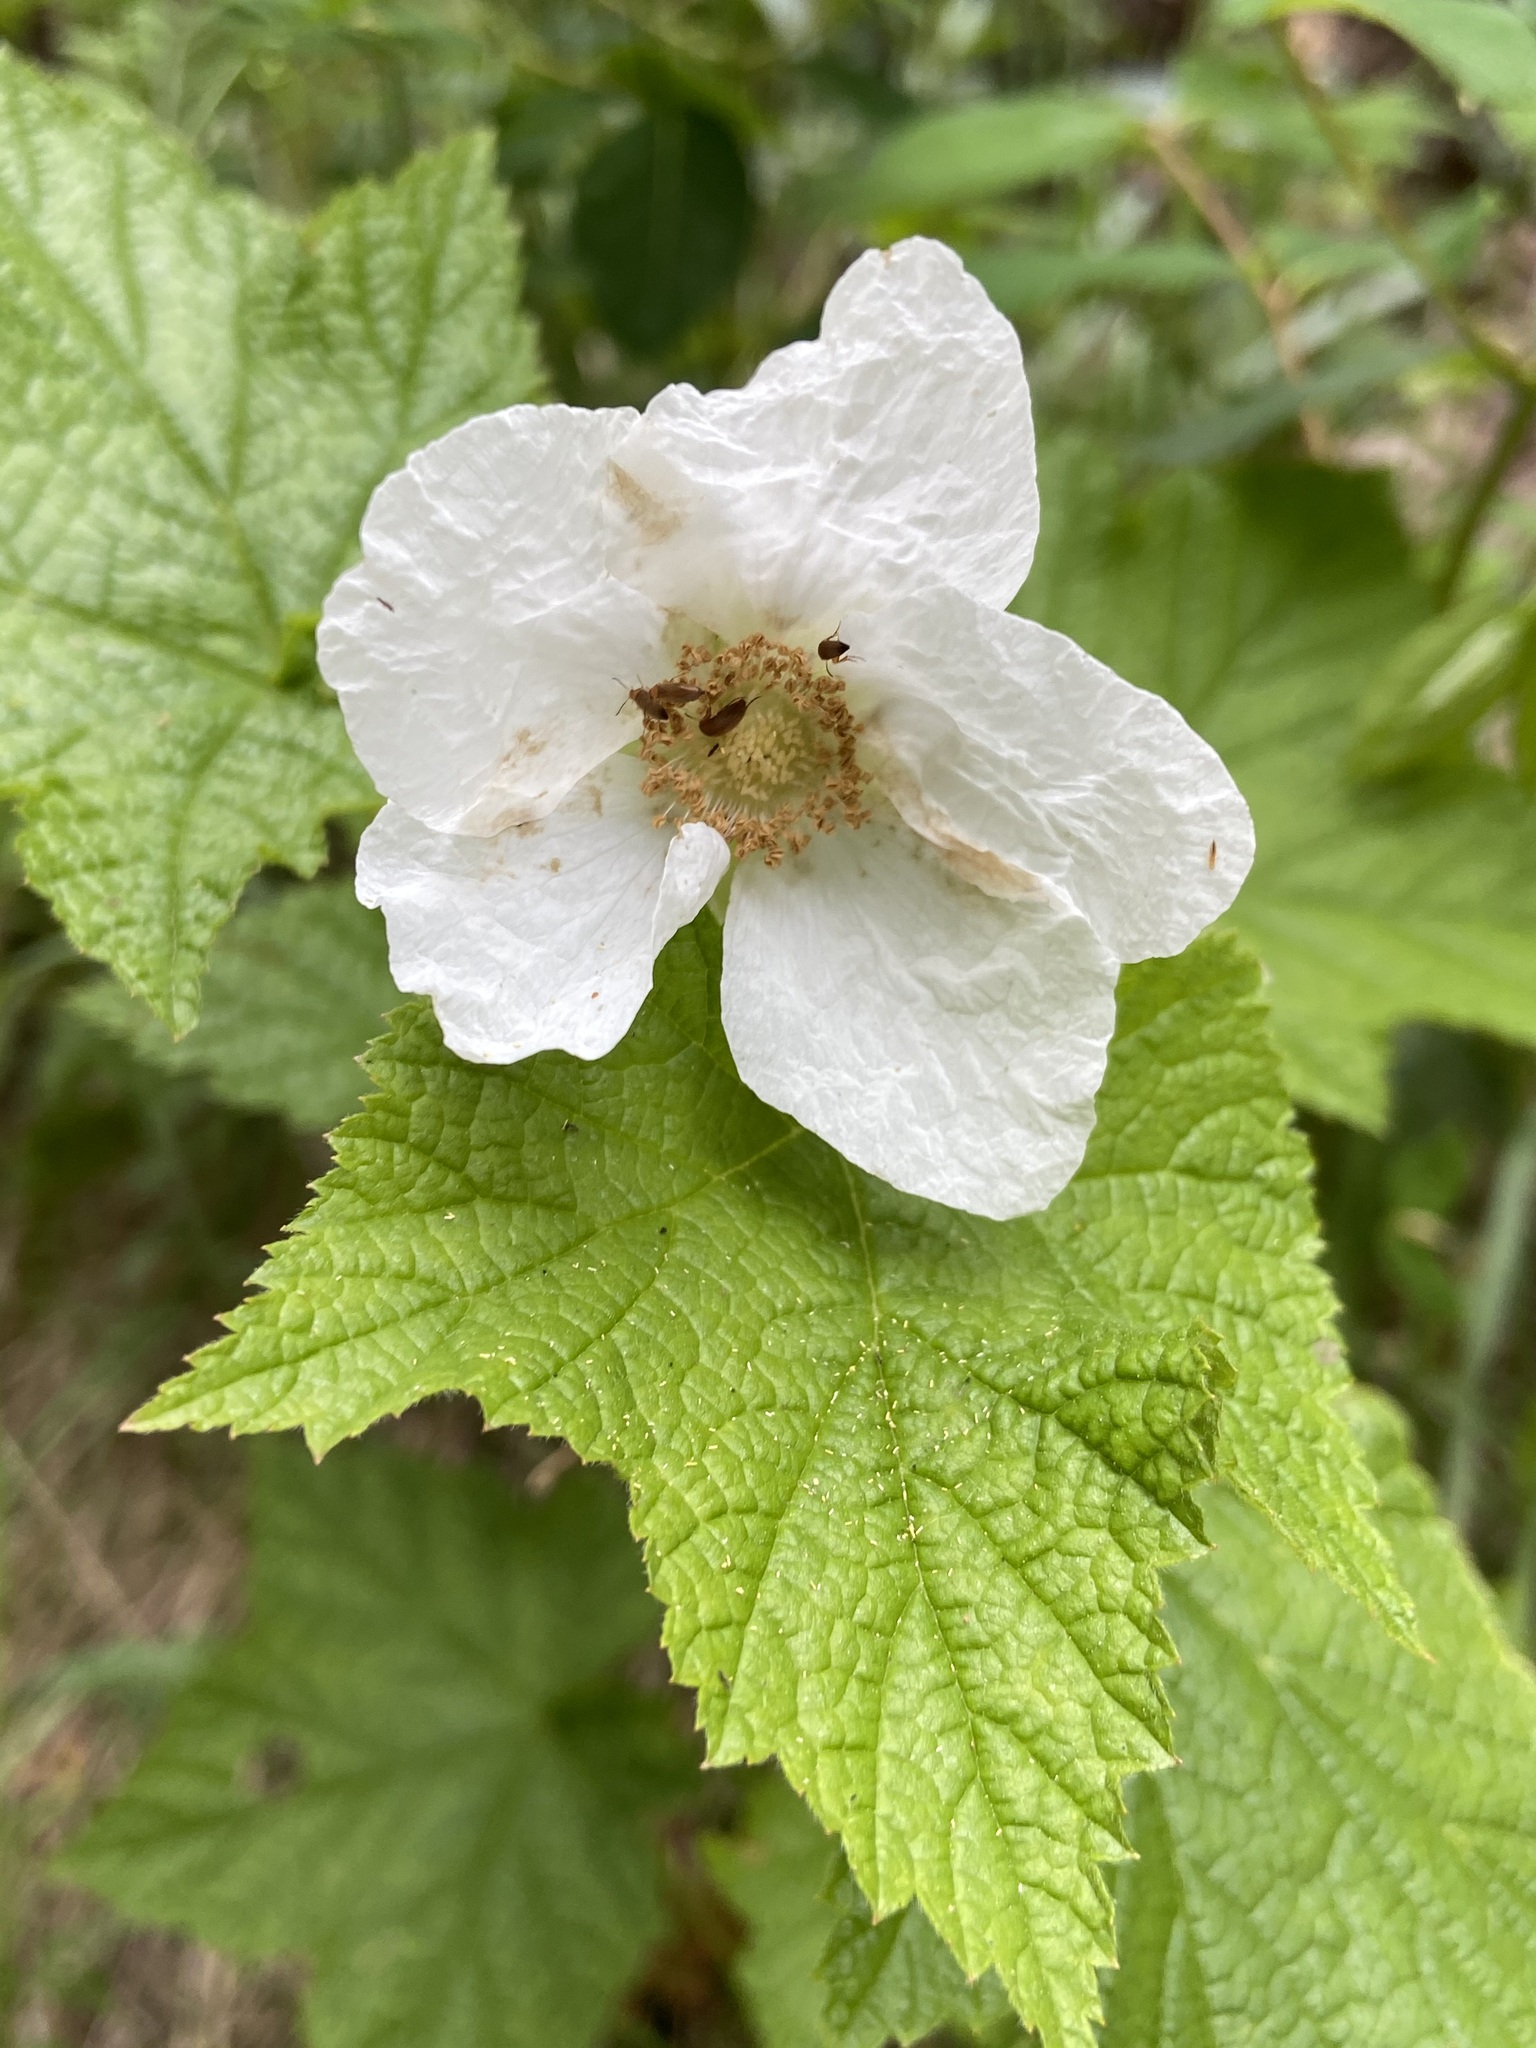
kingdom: Plantae
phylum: Tracheophyta
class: Magnoliopsida
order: Rosales
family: Rosaceae
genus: Rubus
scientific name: Rubus parviflorus
